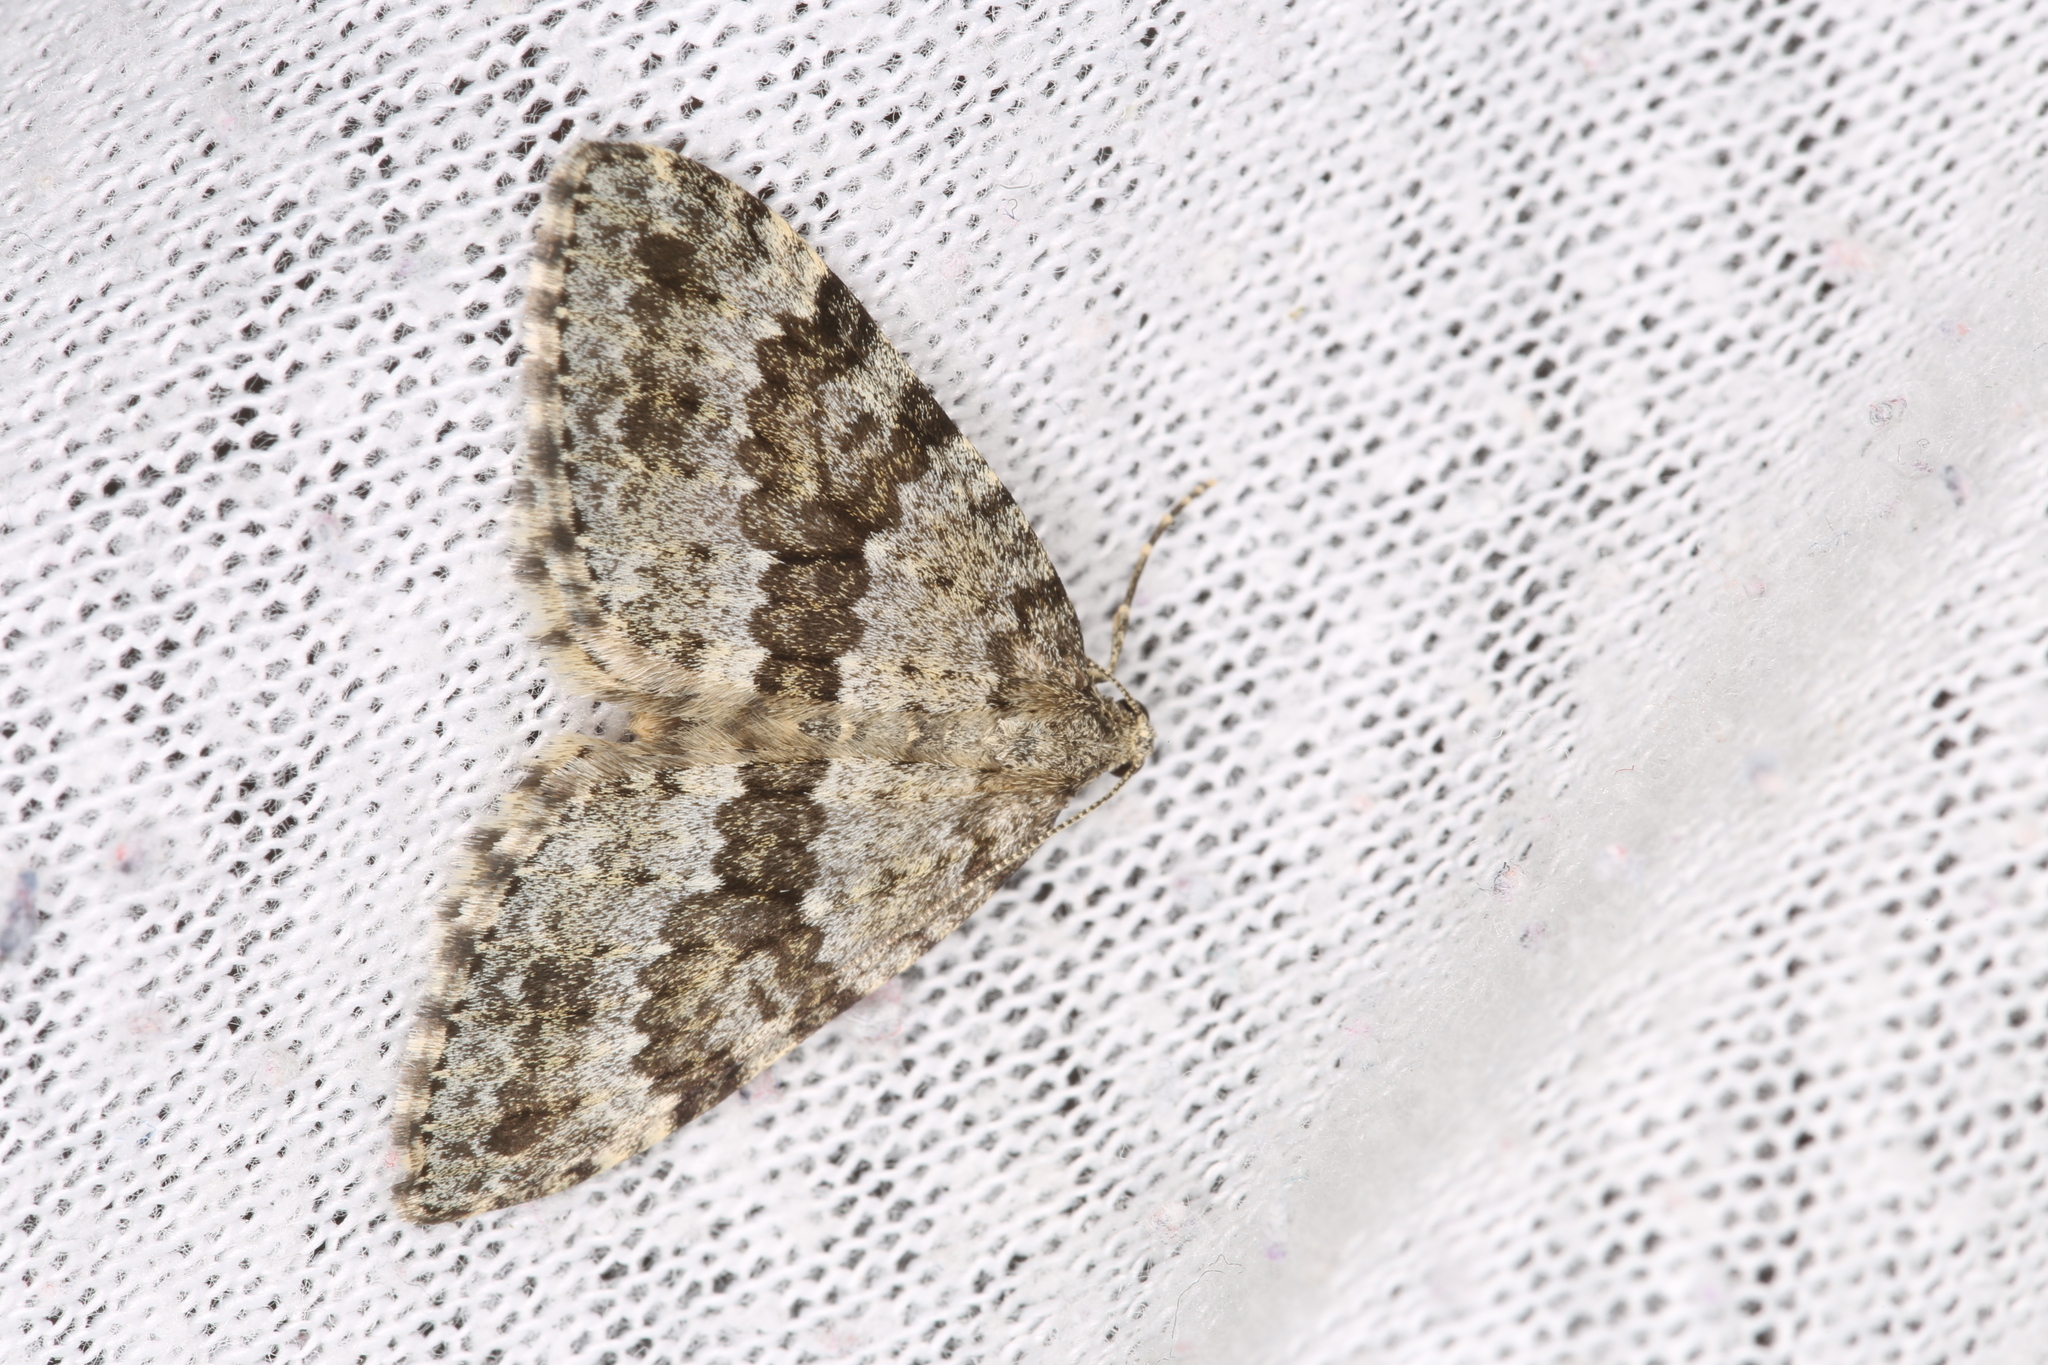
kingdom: Animalia
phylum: Arthropoda
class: Insecta
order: Lepidoptera
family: Geometridae
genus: Entephria
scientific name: Entephria caesiata
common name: Grey mountain moth
